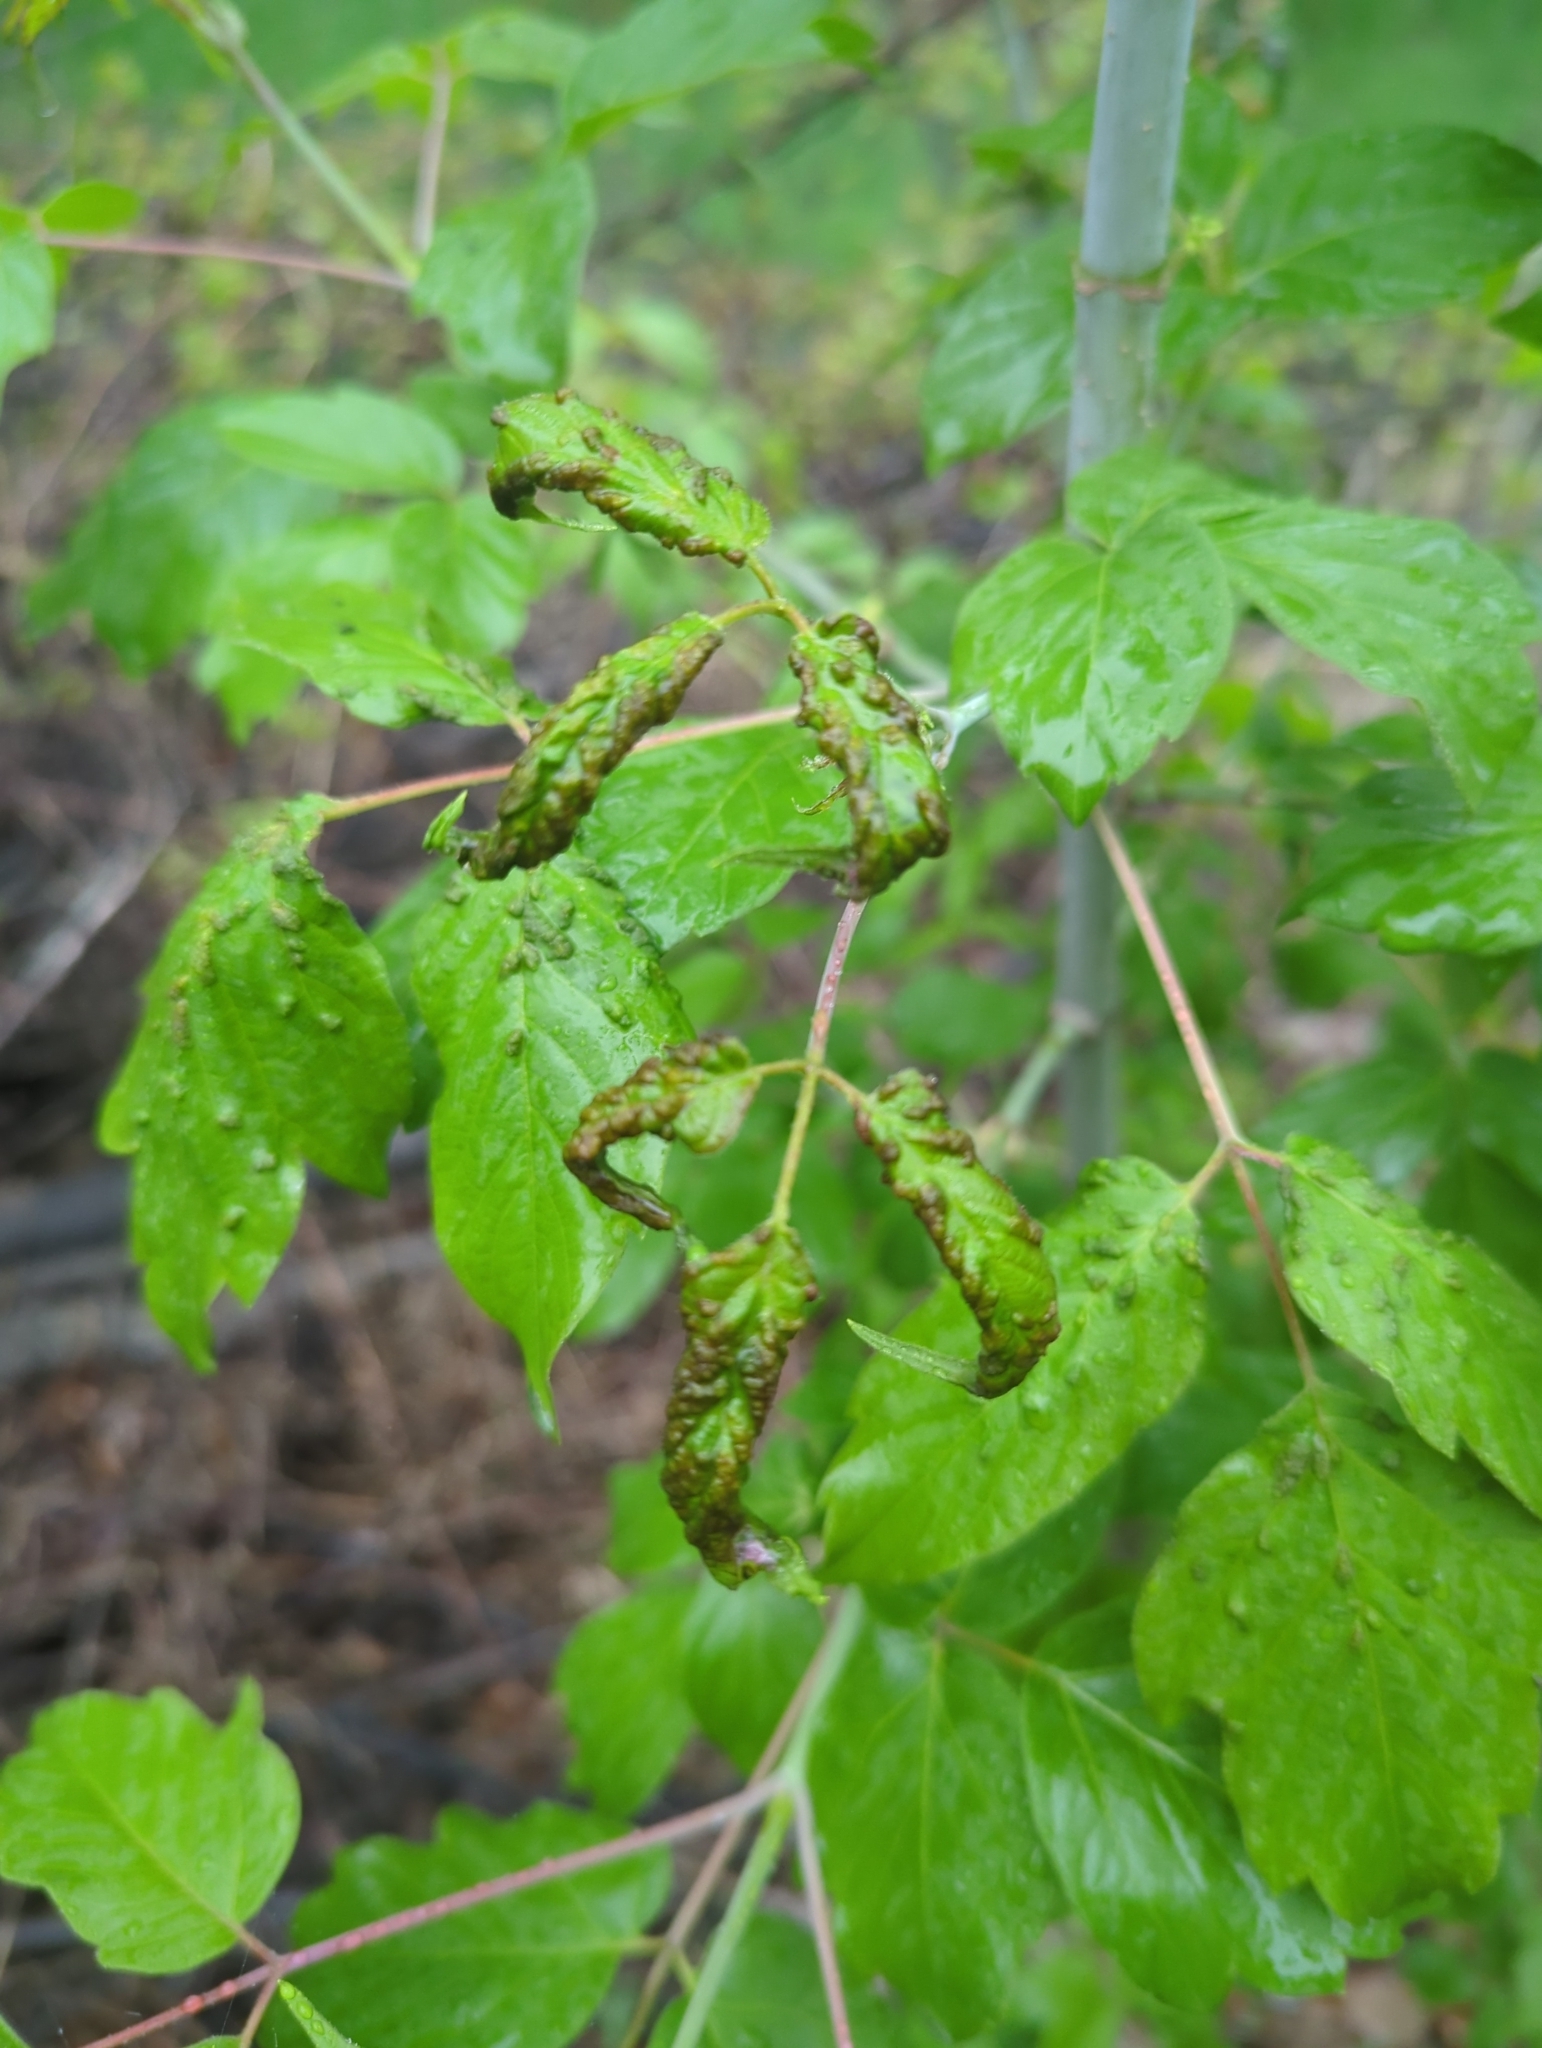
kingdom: Animalia
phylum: Arthropoda
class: Arachnida
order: Trombidiformes
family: Eriophyidae
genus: Aceria
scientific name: Aceria
